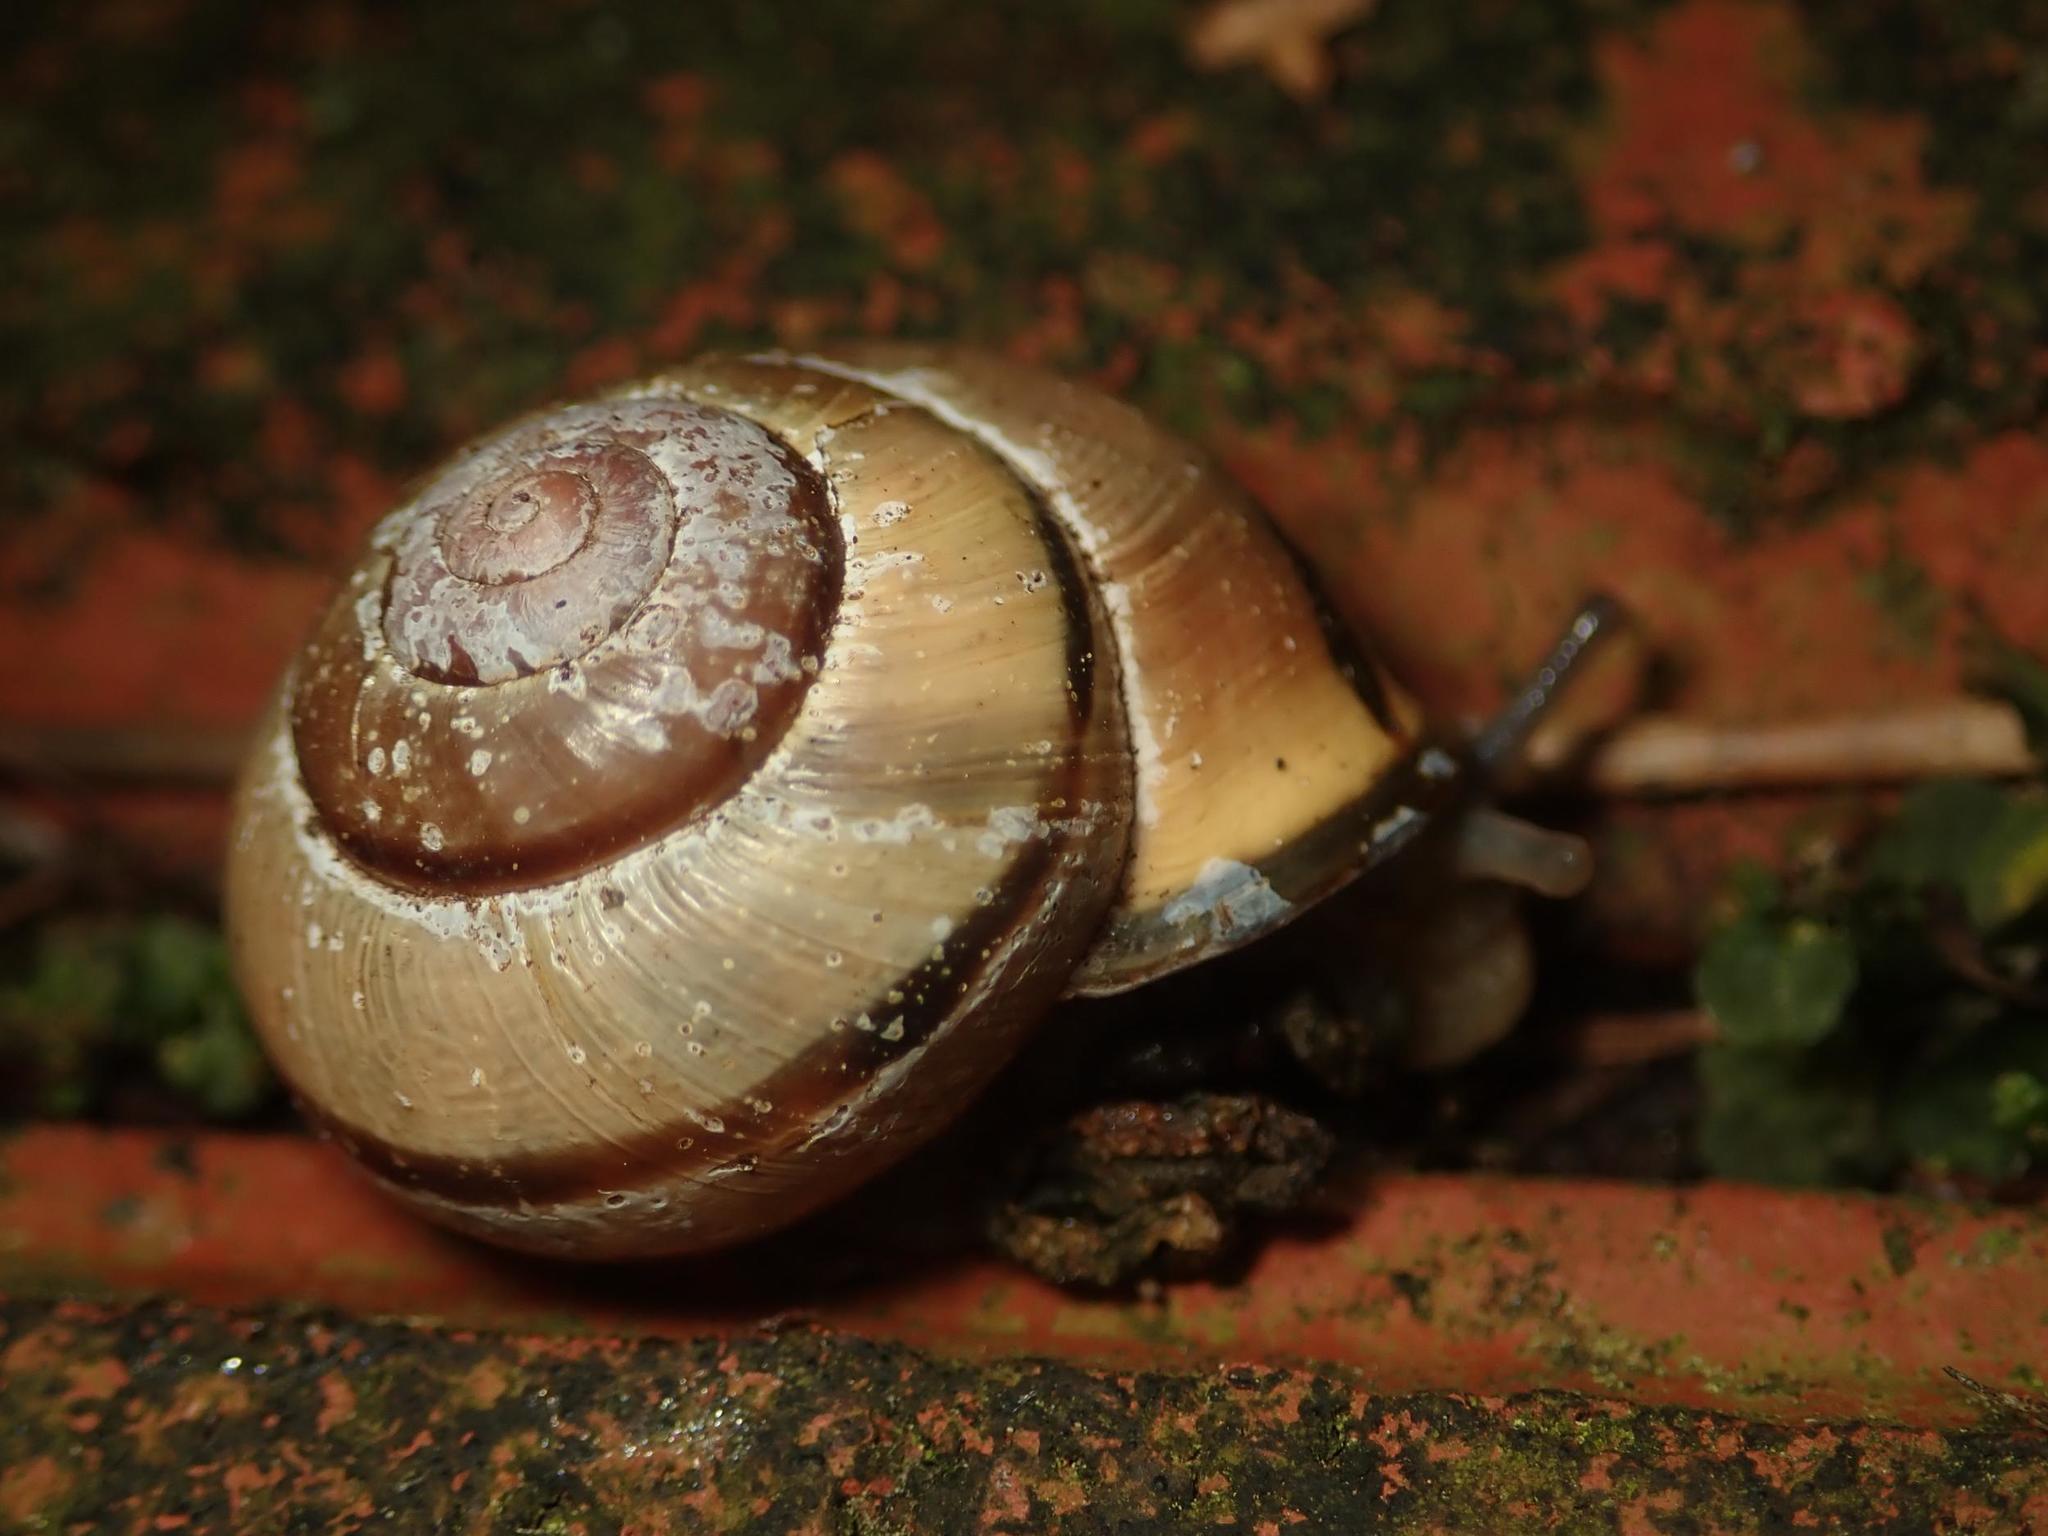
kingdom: Animalia
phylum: Mollusca
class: Gastropoda
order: Stylommatophora
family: Helicidae
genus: Cepaea
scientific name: Cepaea nemoralis
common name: Grovesnail
